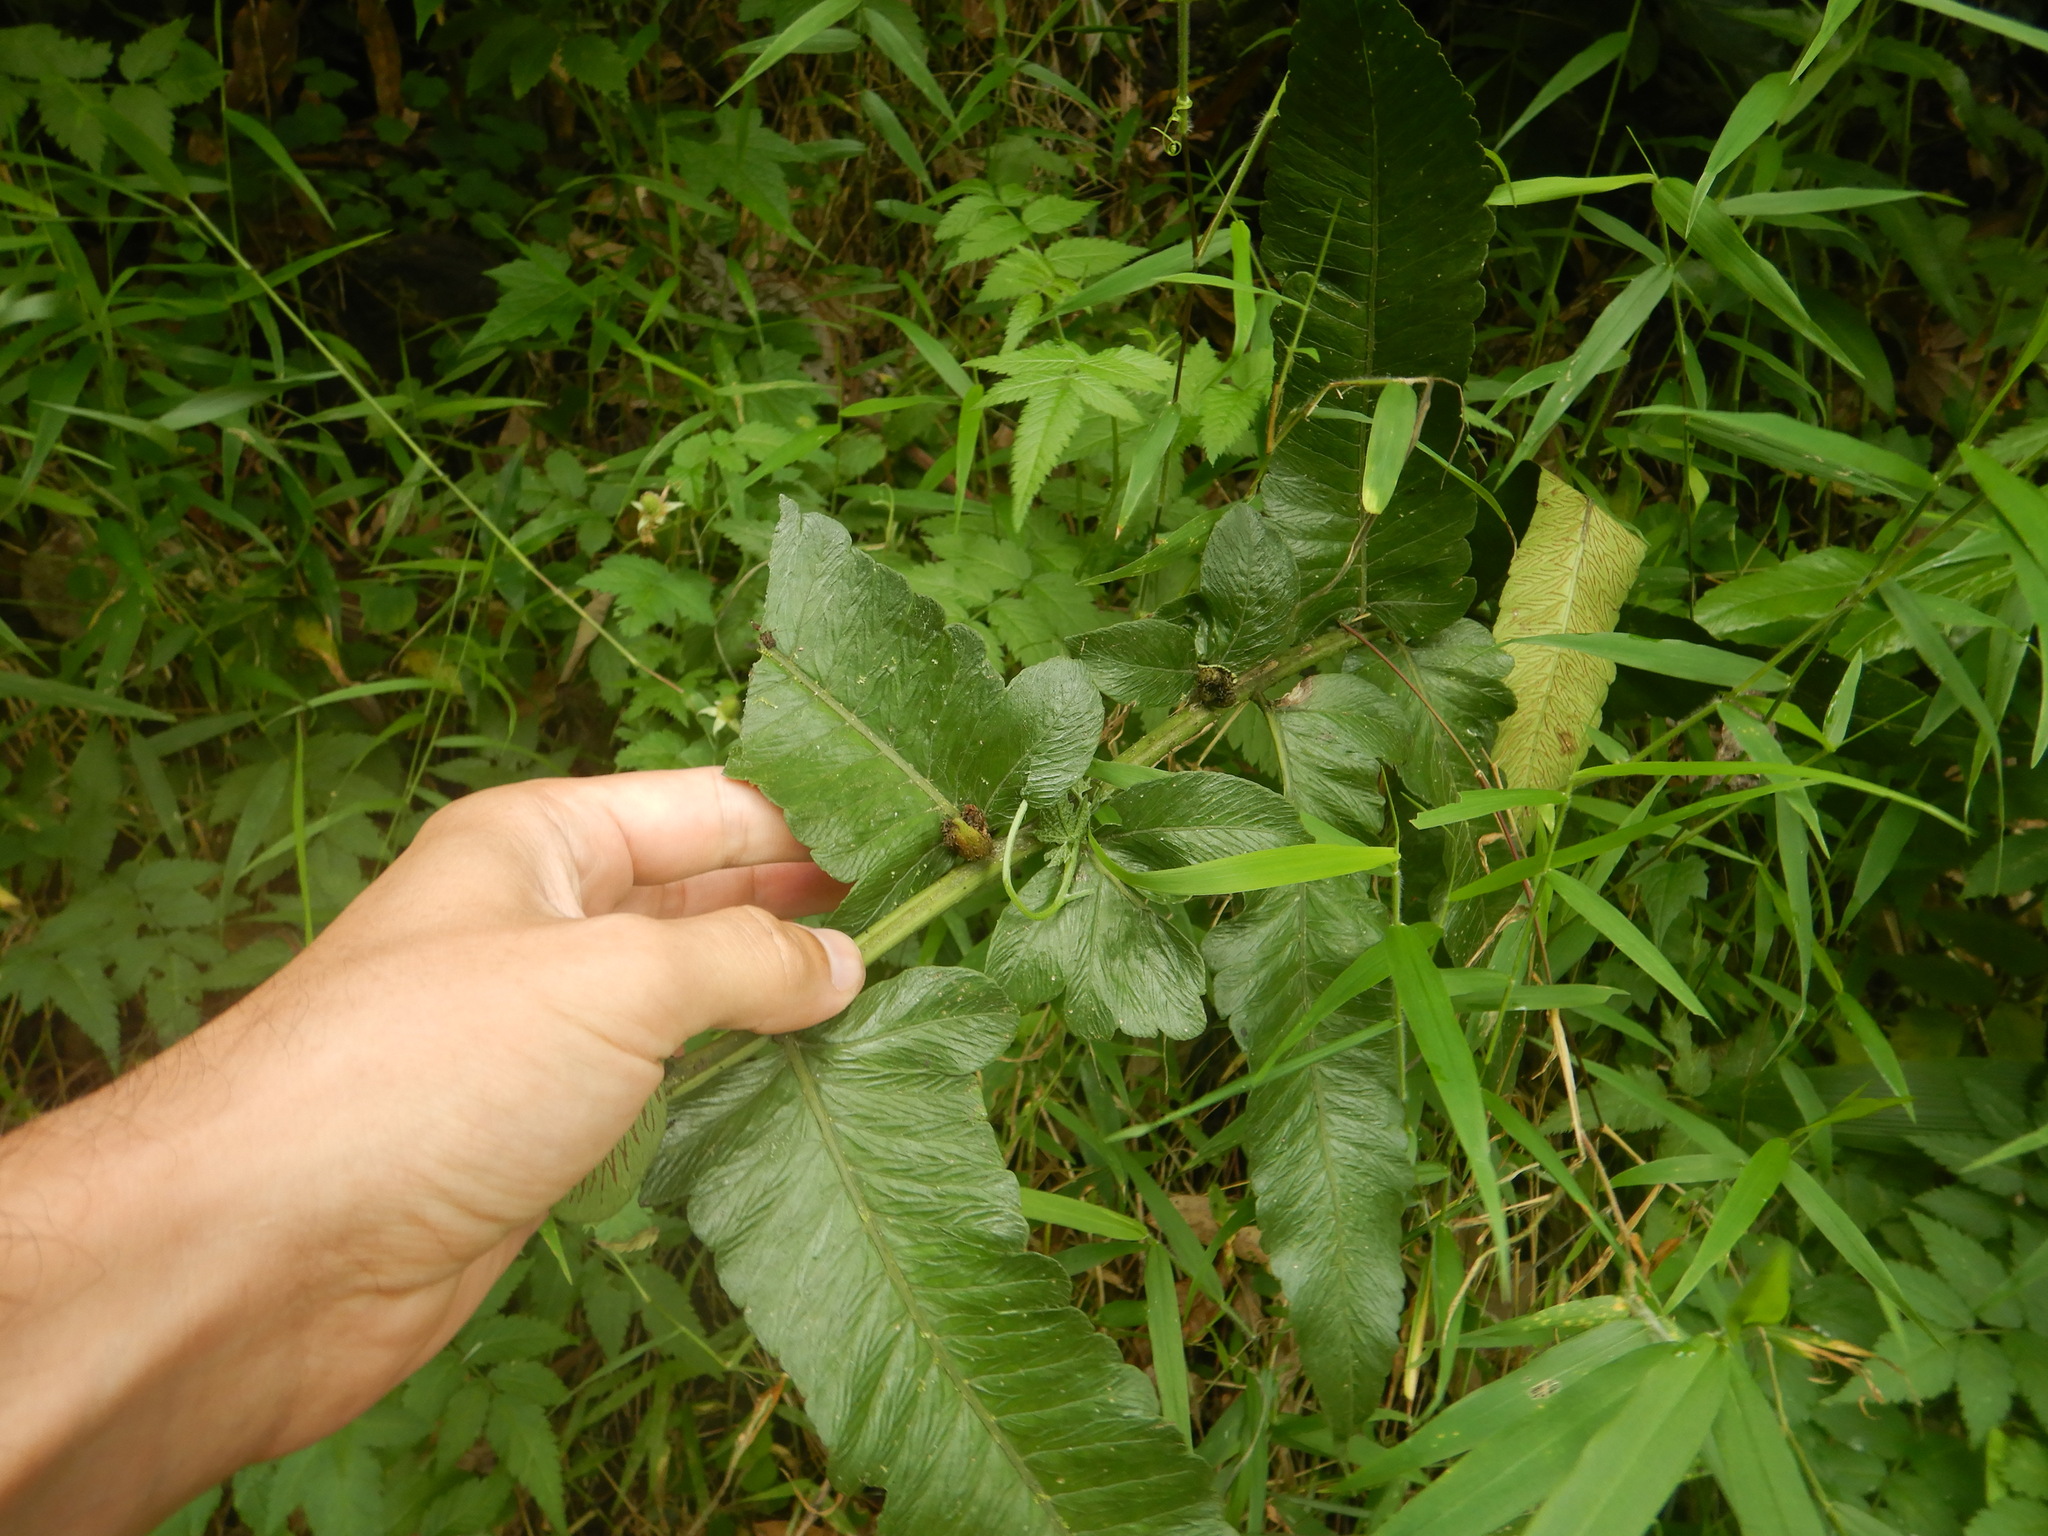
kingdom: Plantae
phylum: Tracheophyta
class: Polypodiopsida
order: Polypodiales
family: Athyriaceae
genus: Diplazium
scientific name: Diplazium proliferum
